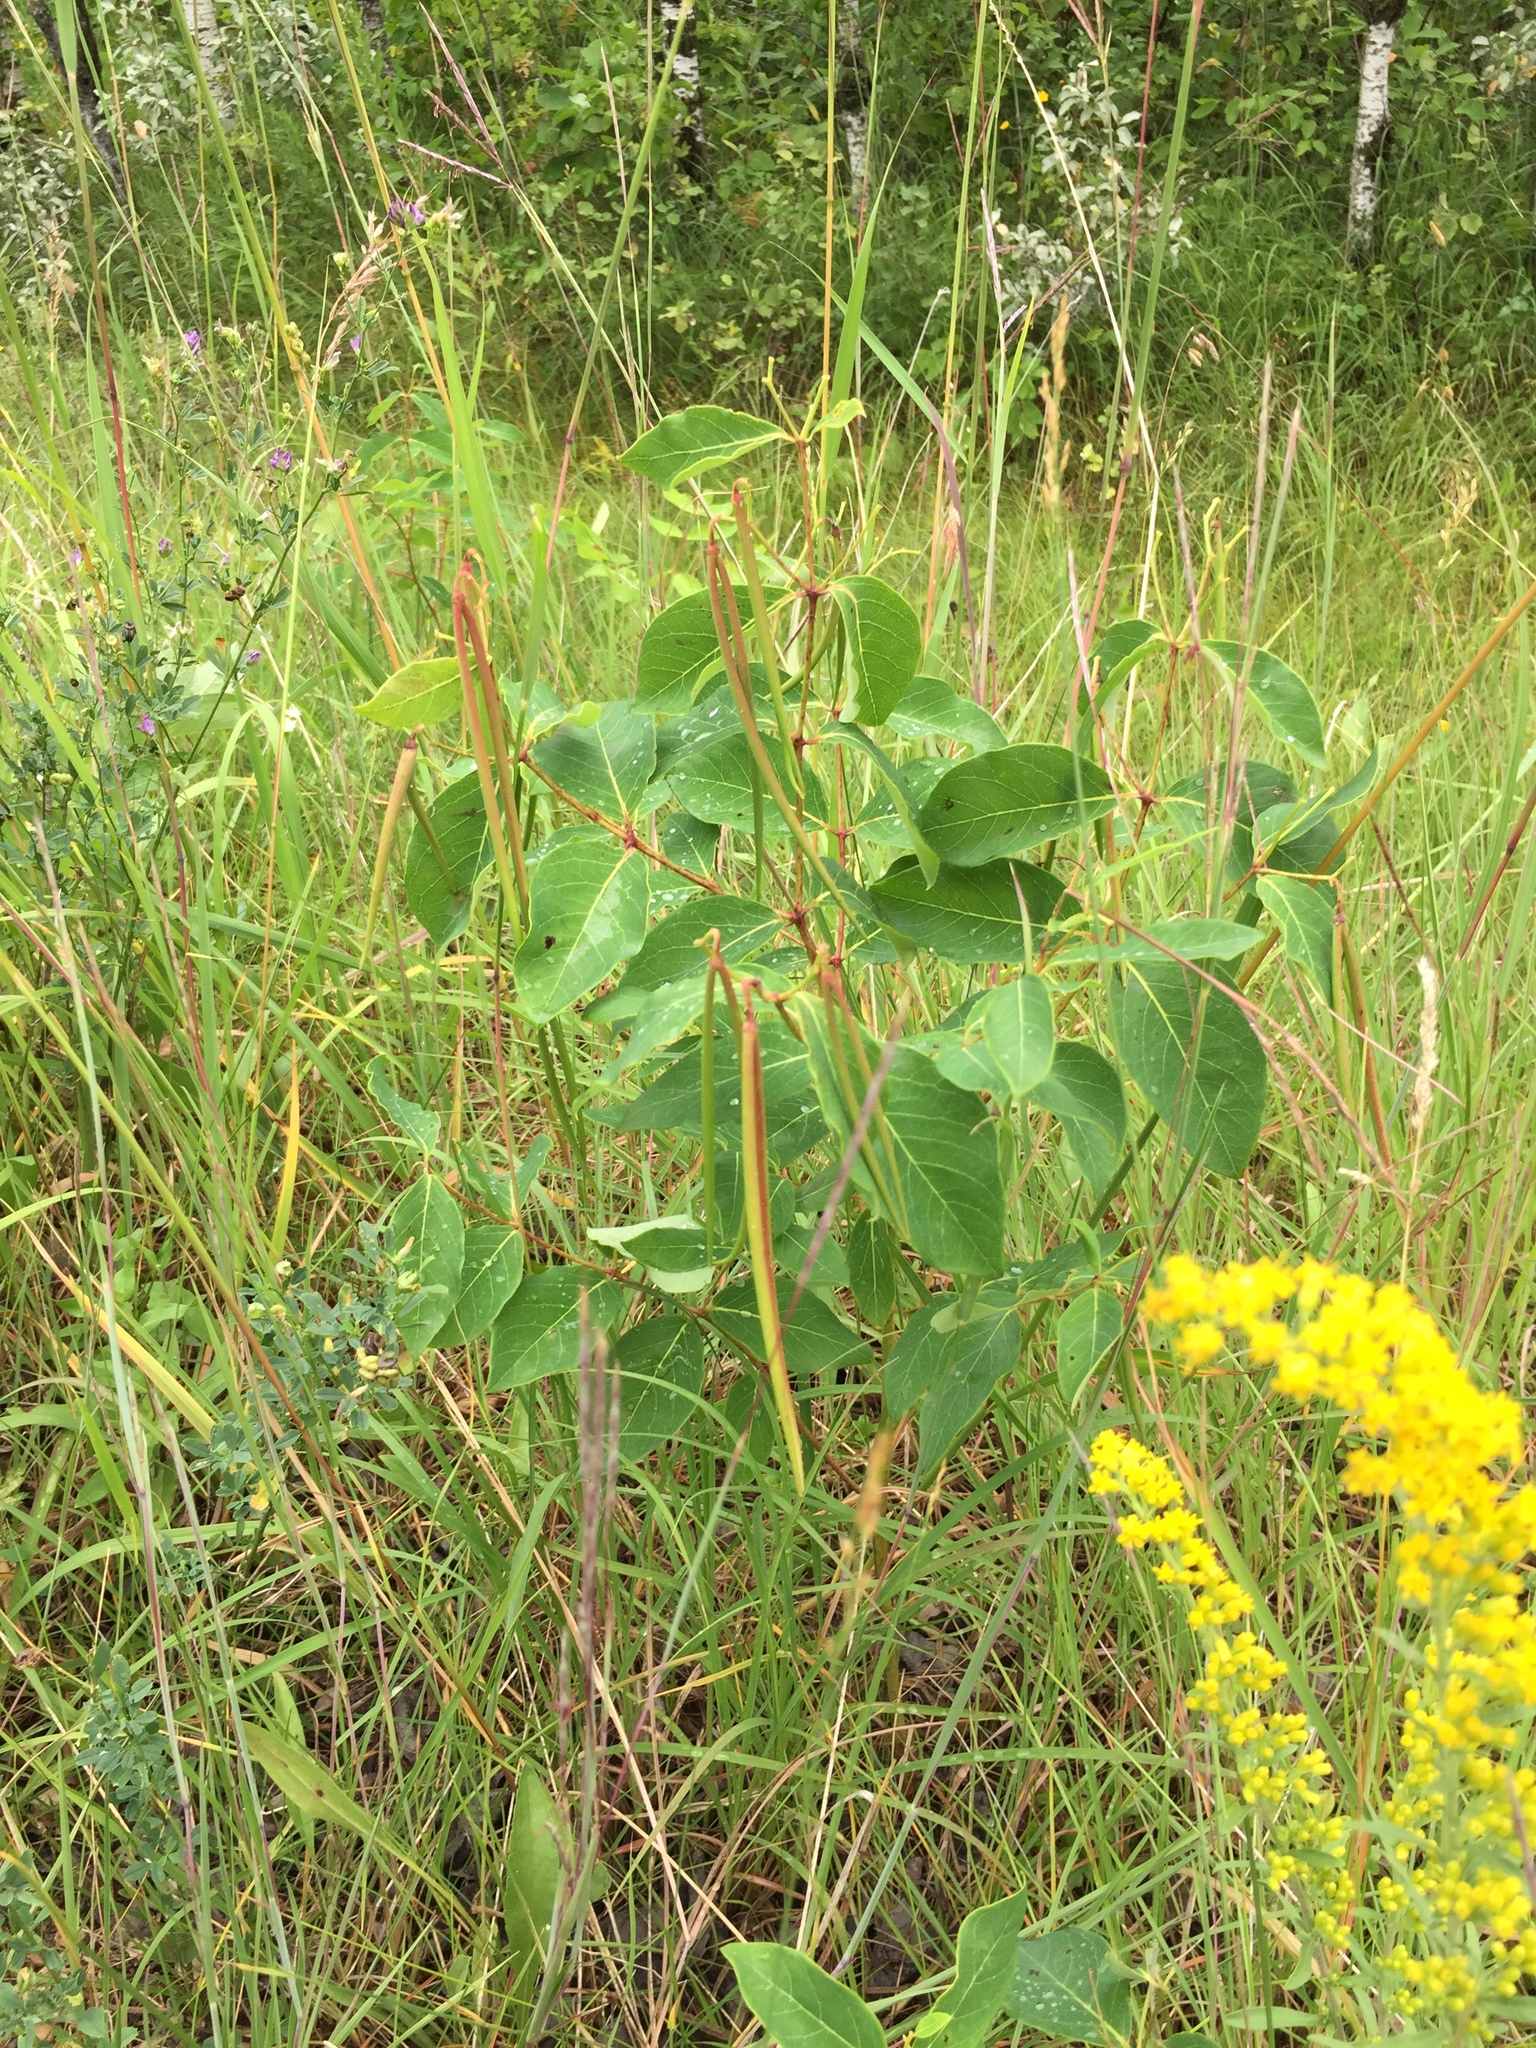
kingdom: Plantae
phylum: Tracheophyta
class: Magnoliopsida
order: Gentianales
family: Apocynaceae
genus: Apocynum
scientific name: Apocynum androsaemifolium
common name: Spreading dogbane
